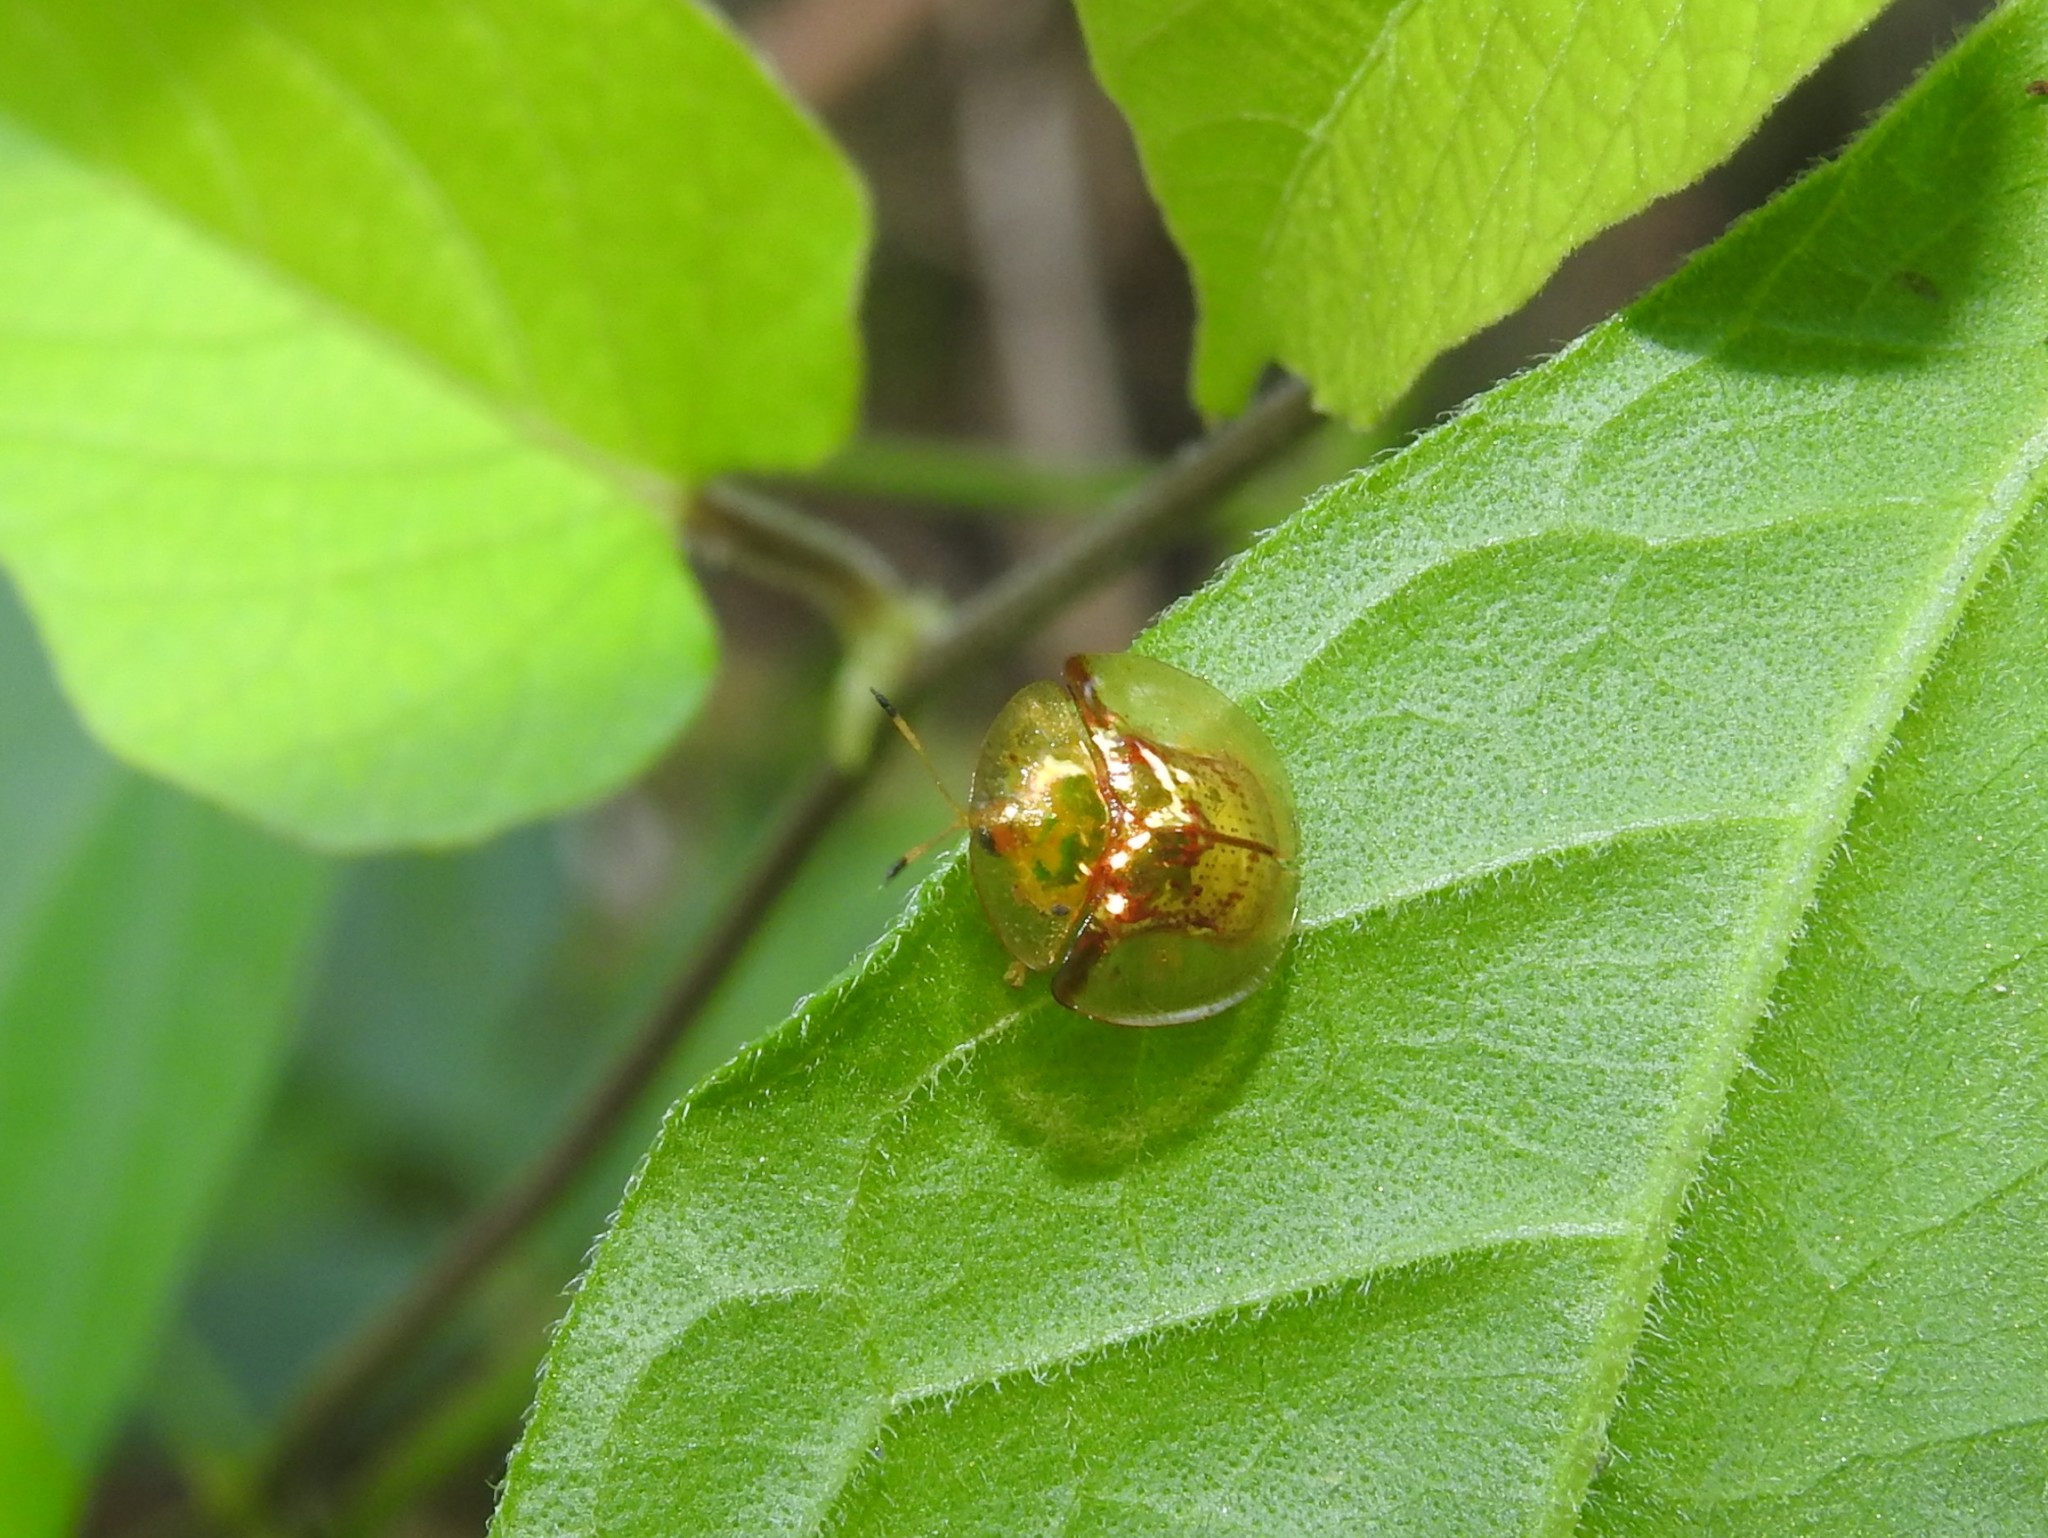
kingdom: Animalia
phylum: Arthropoda
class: Insecta
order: Coleoptera
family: Chrysomelidae
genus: Aspidimorpha
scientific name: Aspidimorpha furcata
